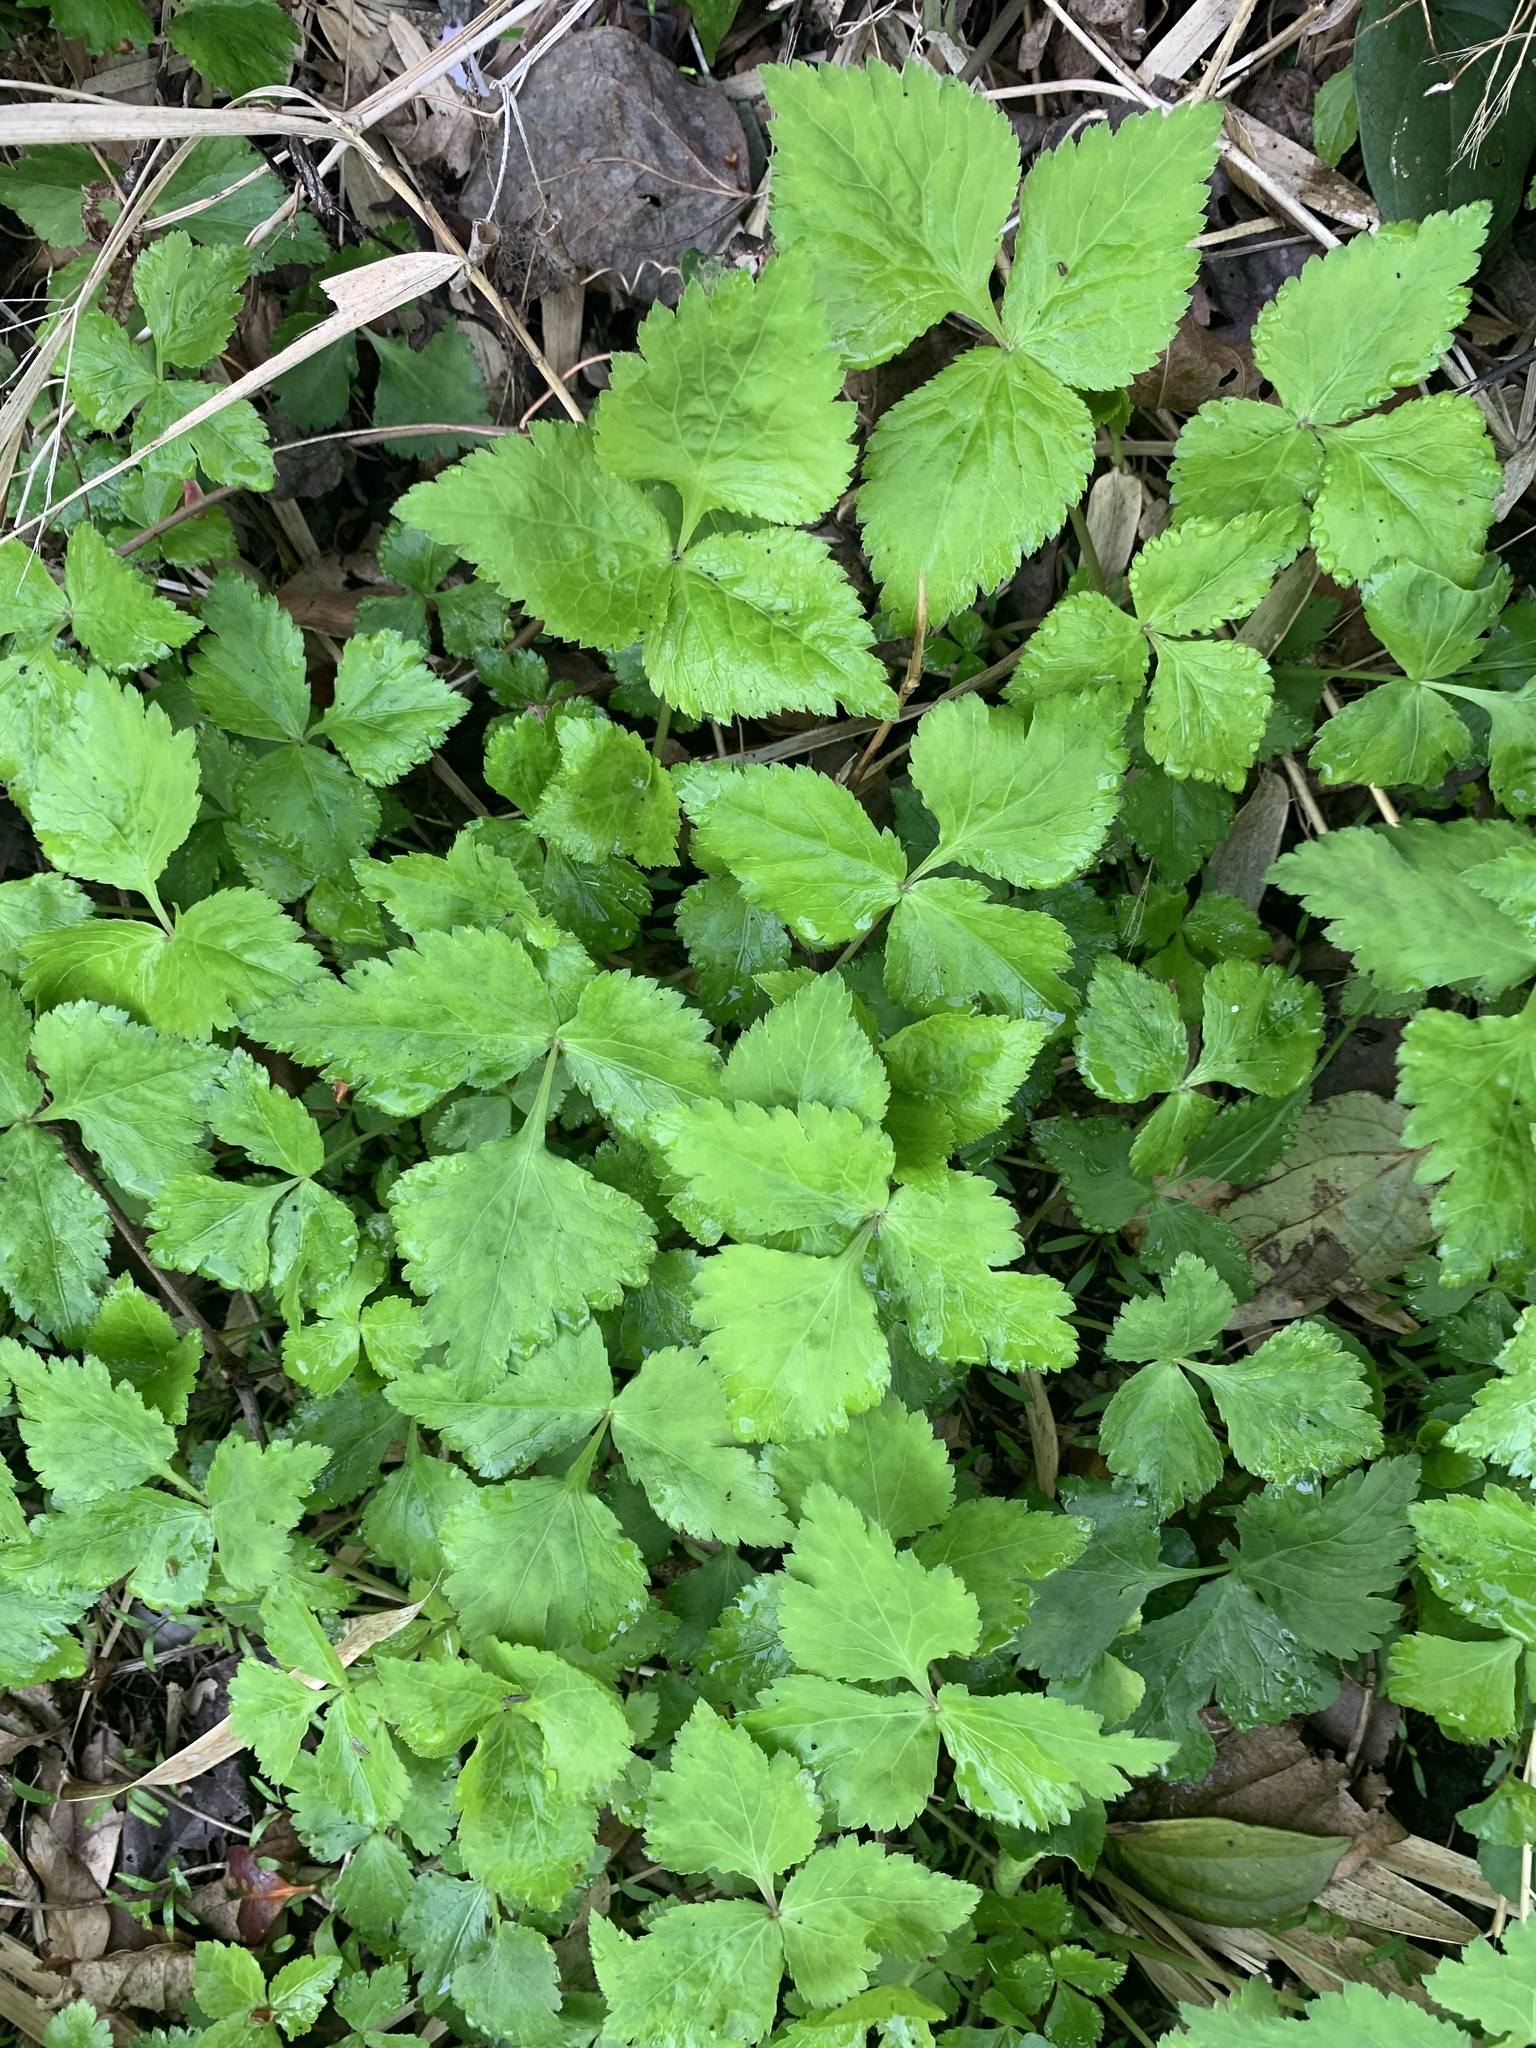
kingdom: Plantae
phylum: Tracheophyta
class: Magnoliopsida
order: Apiales
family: Apiaceae
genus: Cryptotaenia
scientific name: Cryptotaenia japonica
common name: Japanese cryptotaenia
